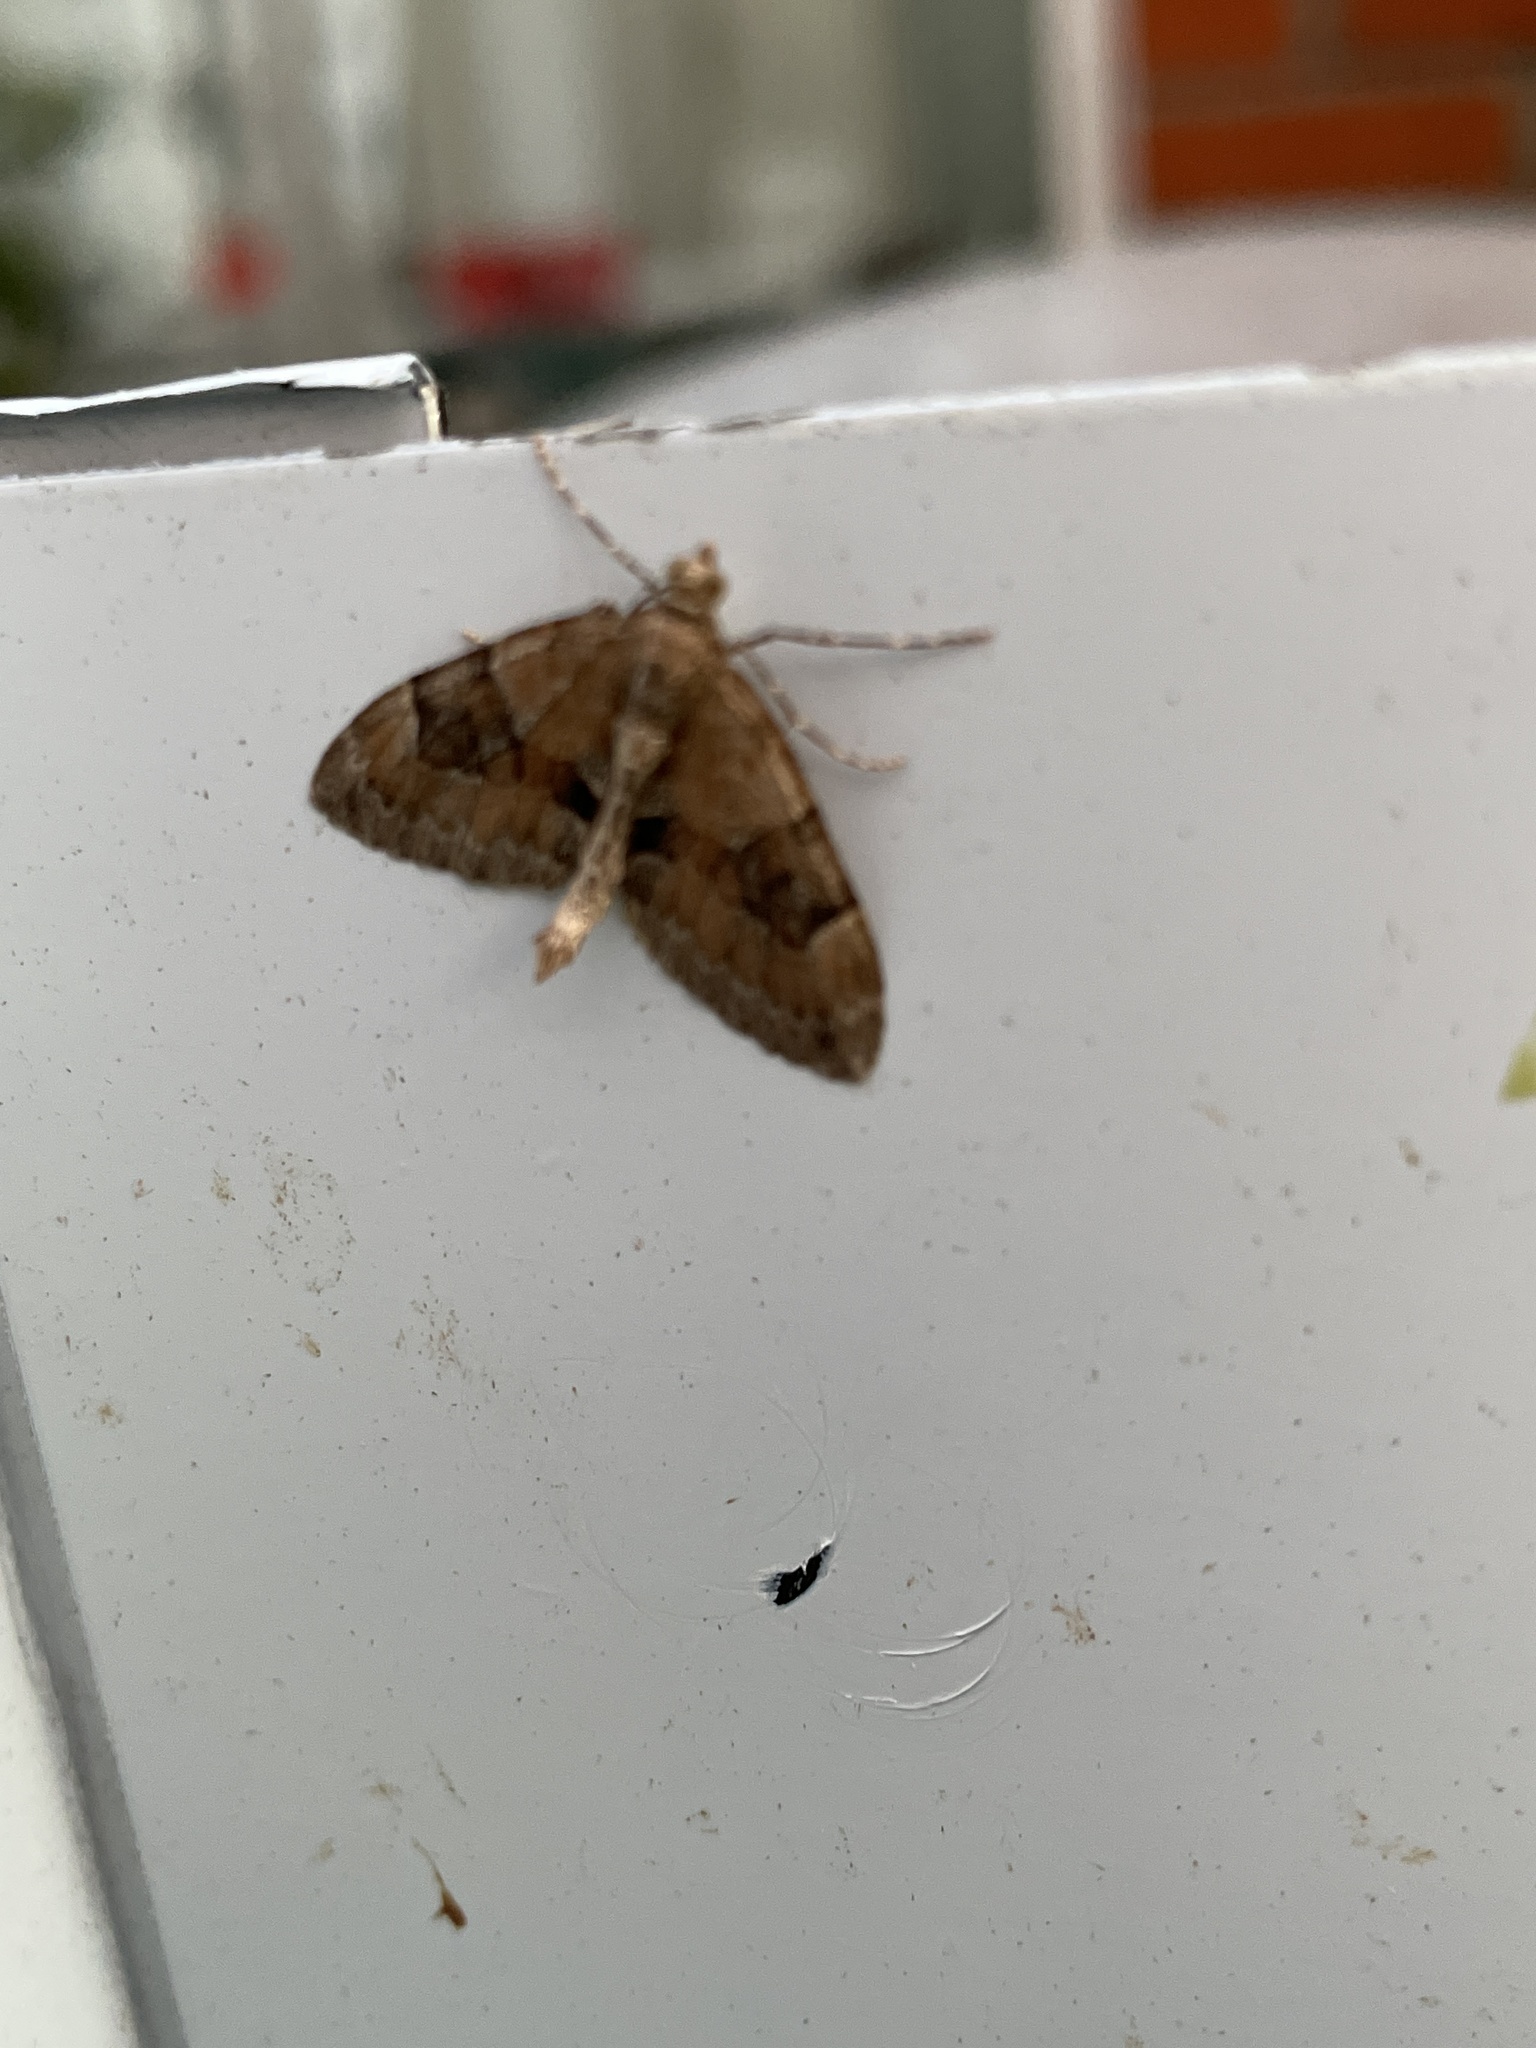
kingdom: Animalia
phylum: Arthropoda
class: Insecta
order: Lepidoptera
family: Geometridae
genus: Thera
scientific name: Thera obeliscata
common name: Grey pine carpet
